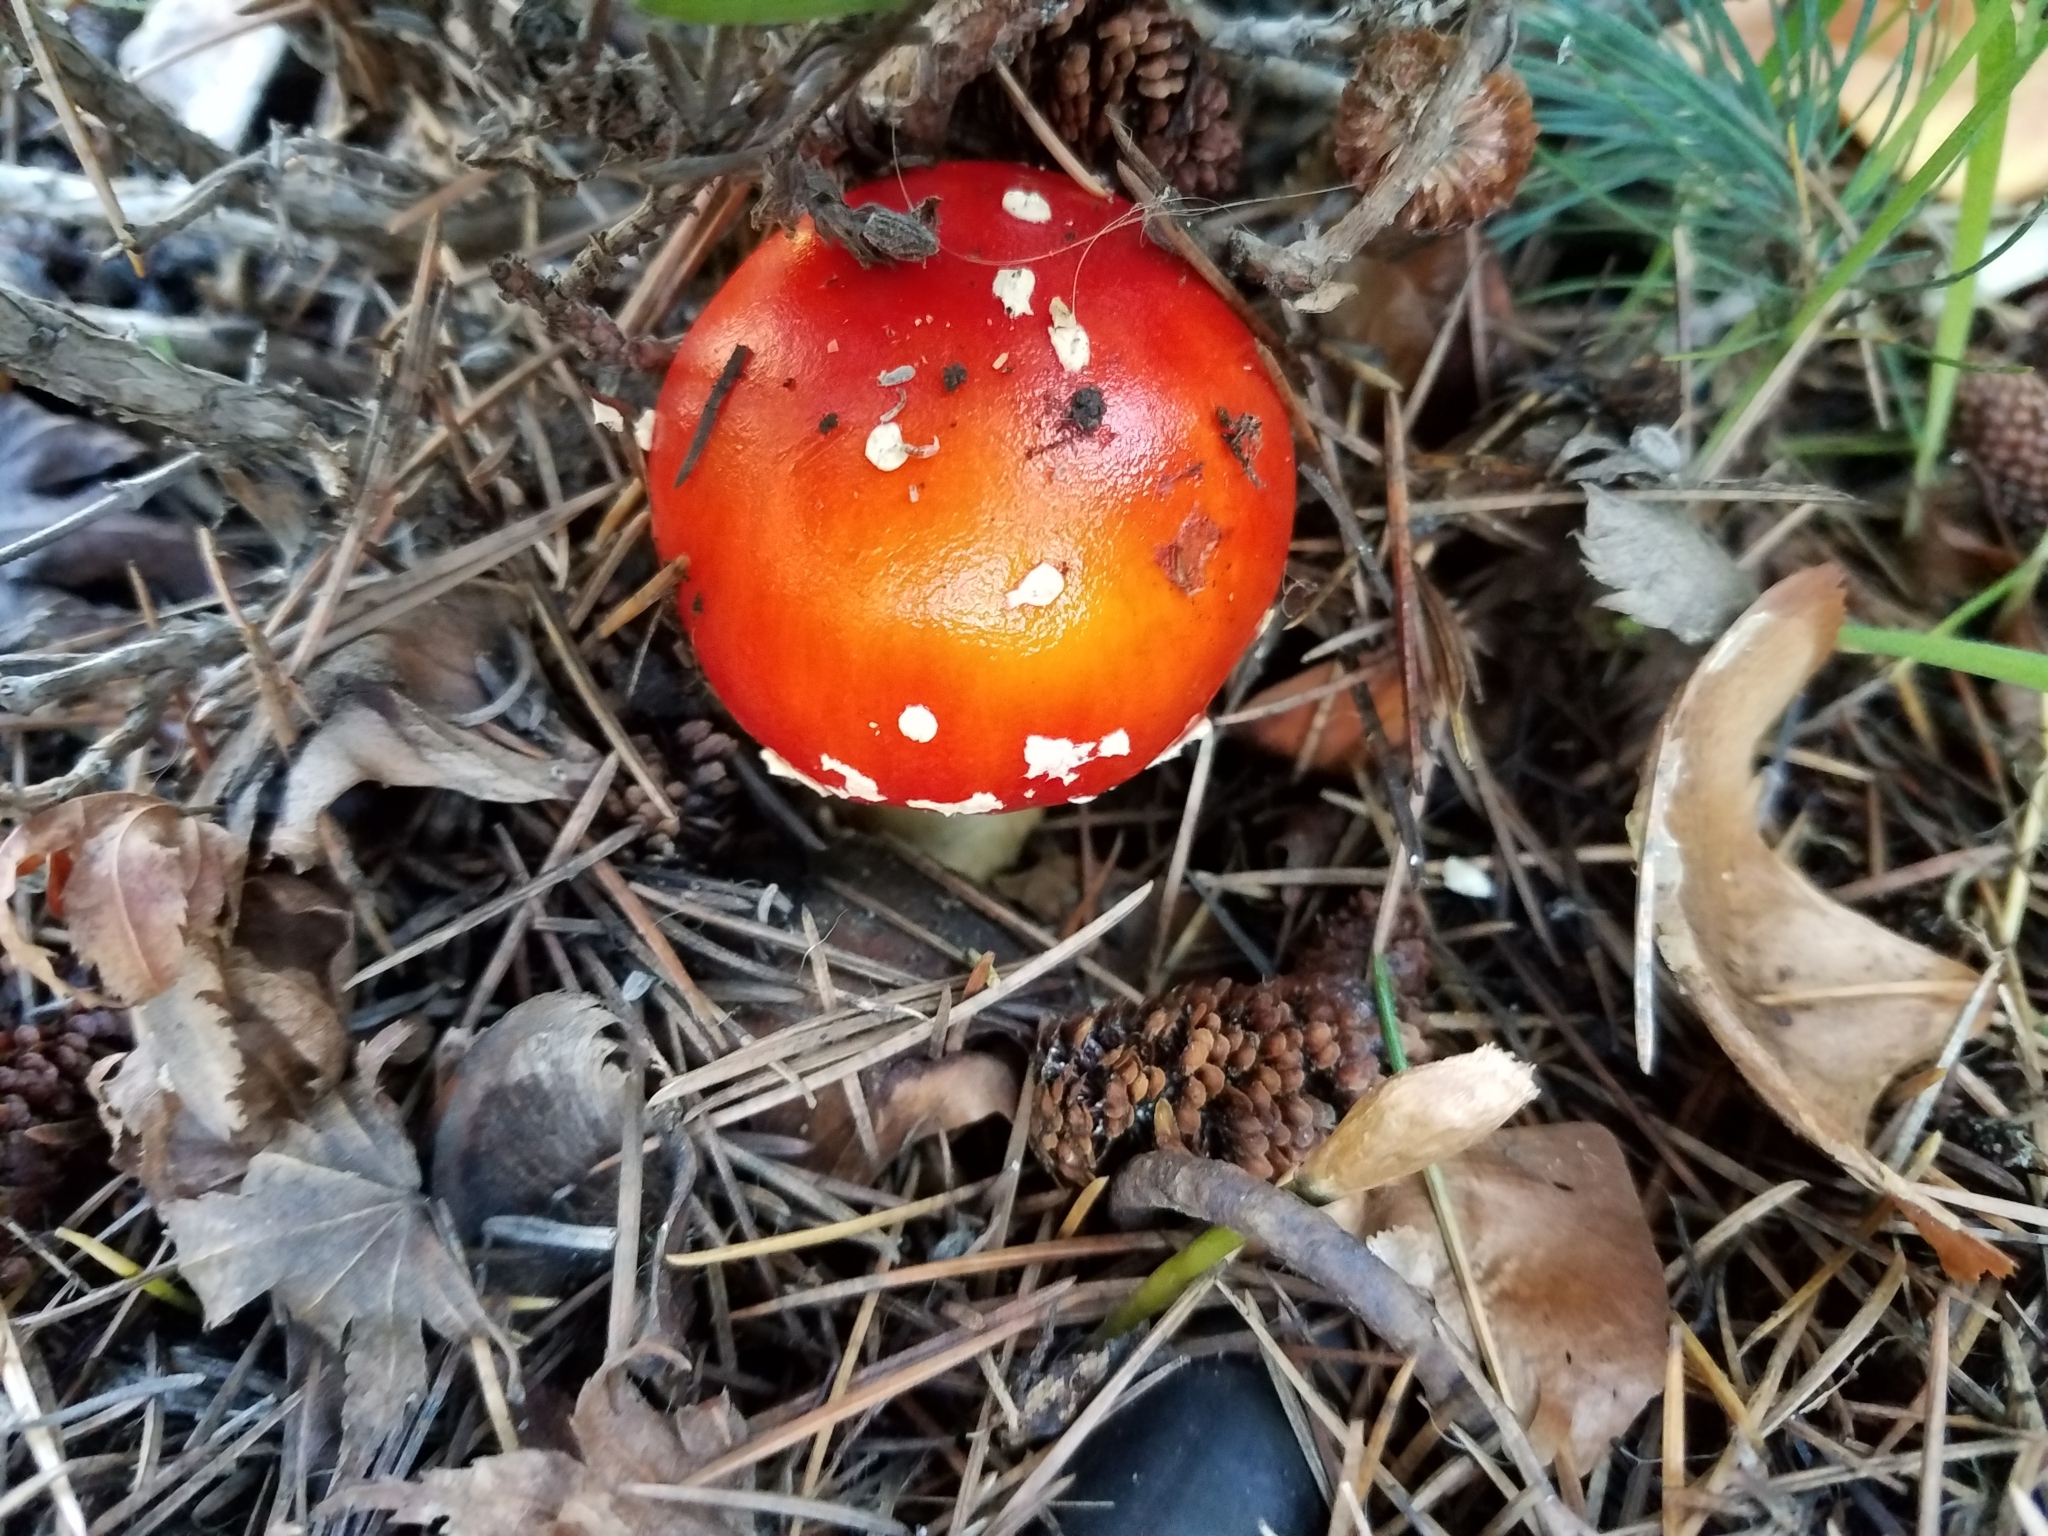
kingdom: Fungi
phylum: Basidiomycota
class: Agaricomycetes
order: Agaricales
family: Amanitaceae
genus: Amanita
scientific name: Amanita muscaria
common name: Fly agaric
